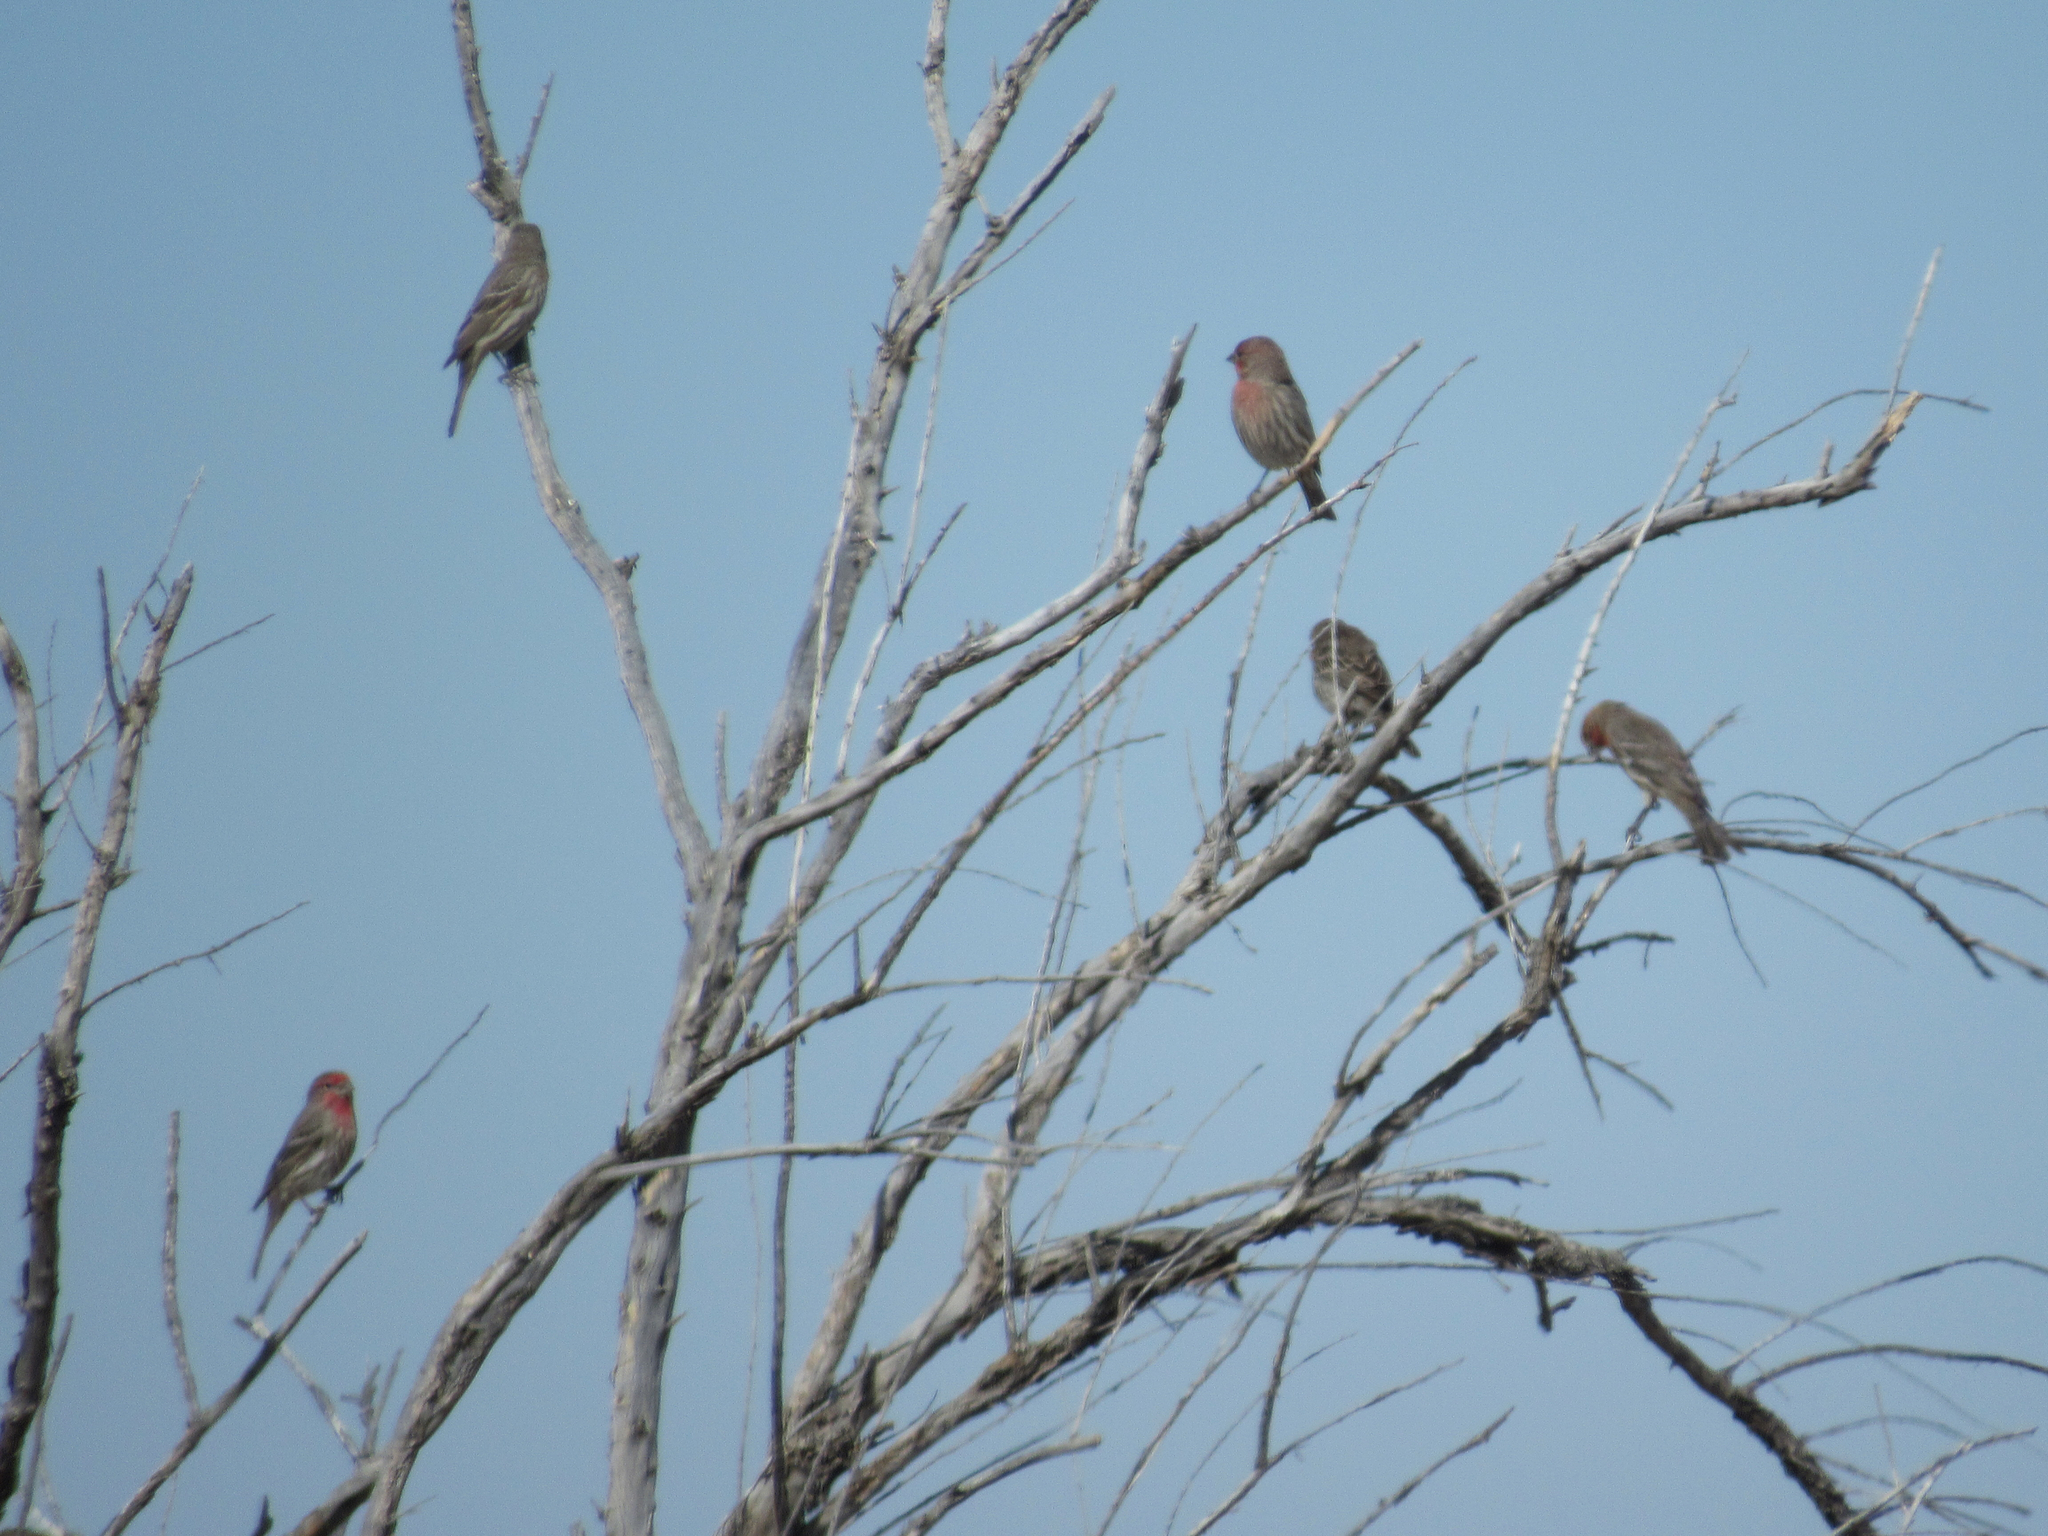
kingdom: Animalia
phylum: Chordata
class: Aves
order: Passeriformes
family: Fringillidae
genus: Haemorhous
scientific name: Haemorhous mexicanus
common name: House finch
